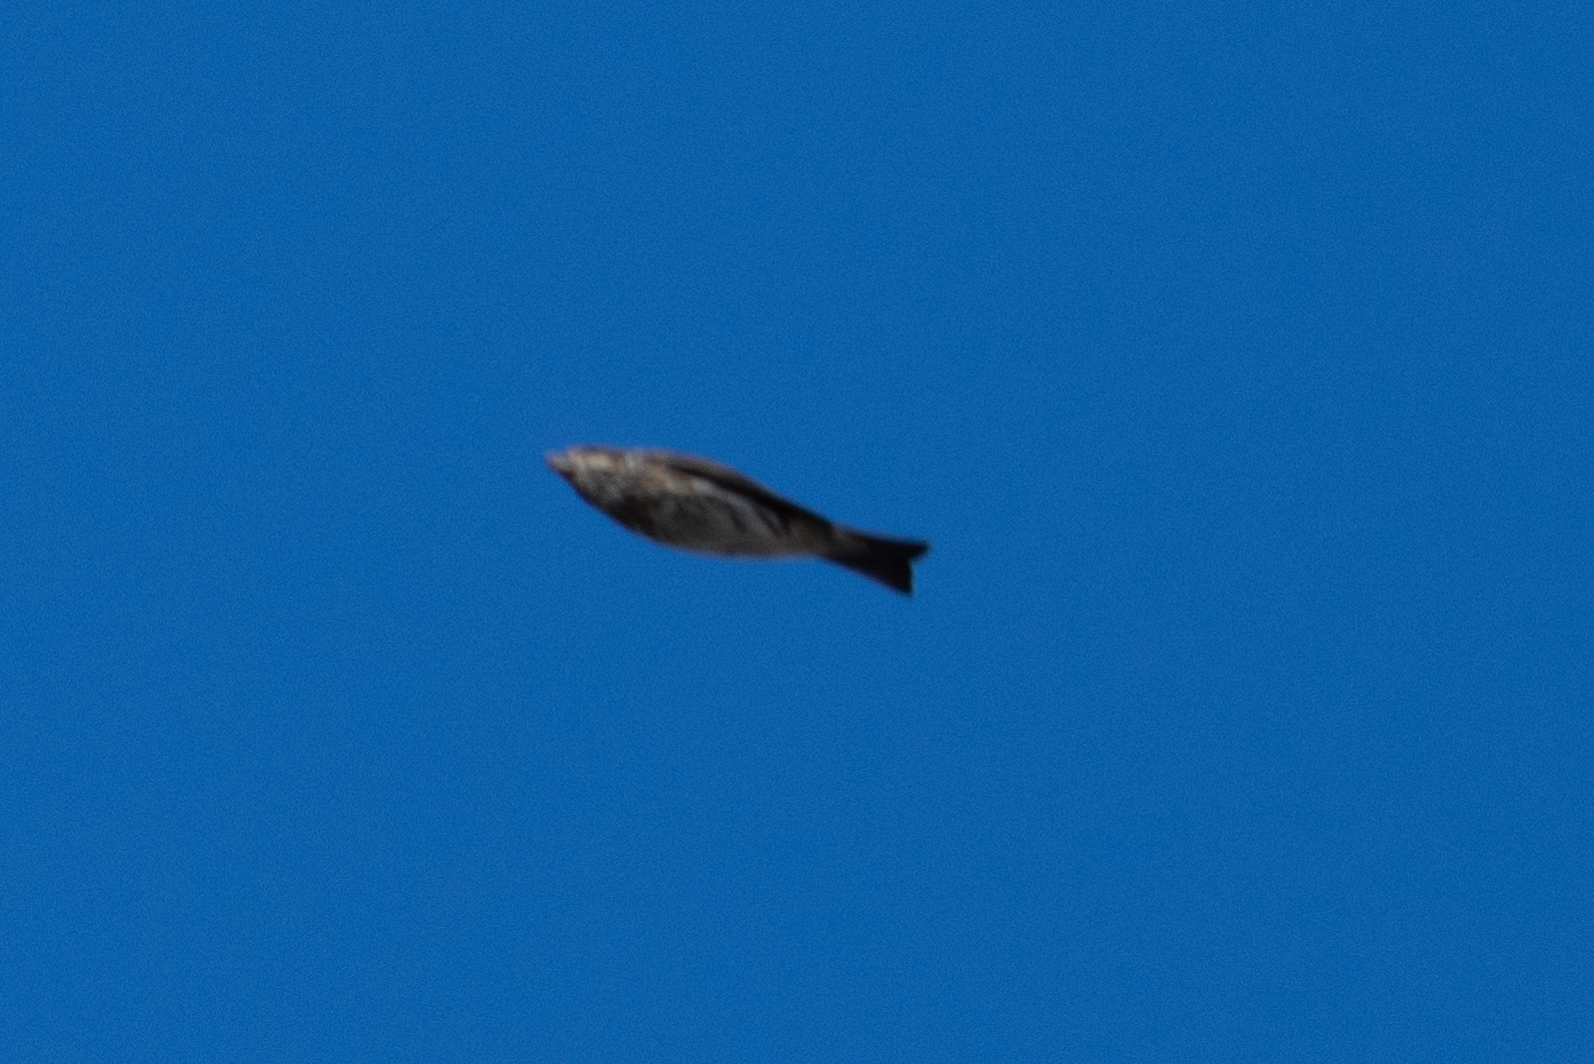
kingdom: Animalia
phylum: Chordata
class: Aves
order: Passeriformes
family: Fringillidae
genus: Haemorhous
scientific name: Haemorhous purpureus
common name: Purple finch
